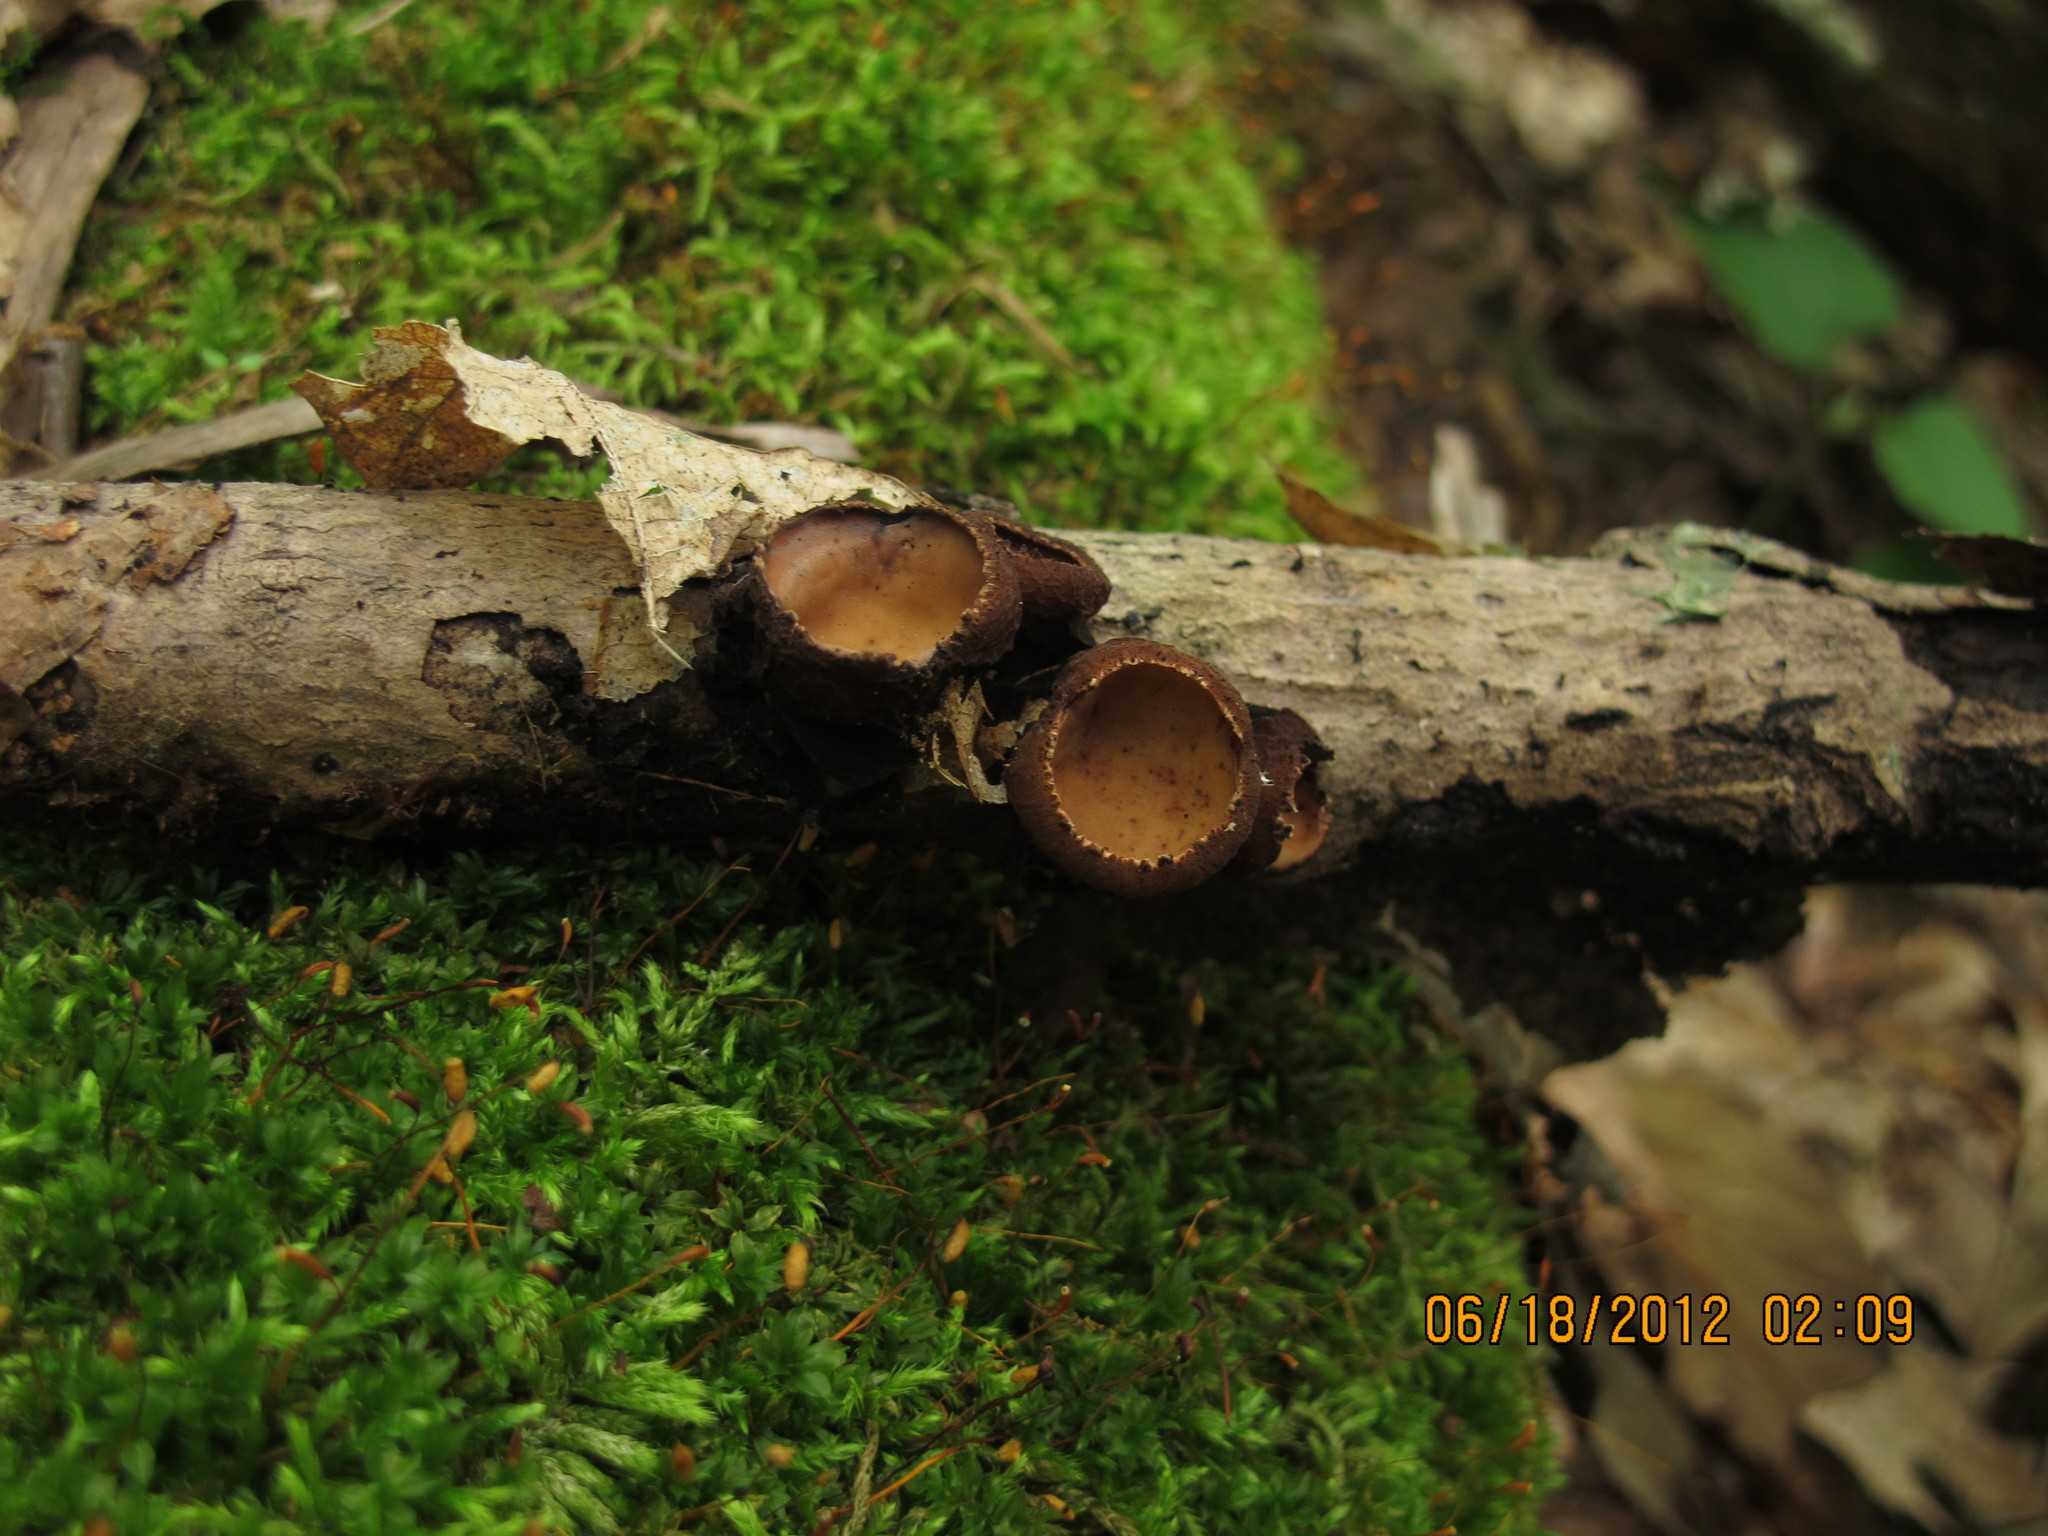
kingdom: Fungi
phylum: Ascomycota
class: Pezizomycetes
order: Pezizales
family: Sarcosomataceae
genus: Galiella
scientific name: Galiella rufa
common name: Hairy rubber cup
